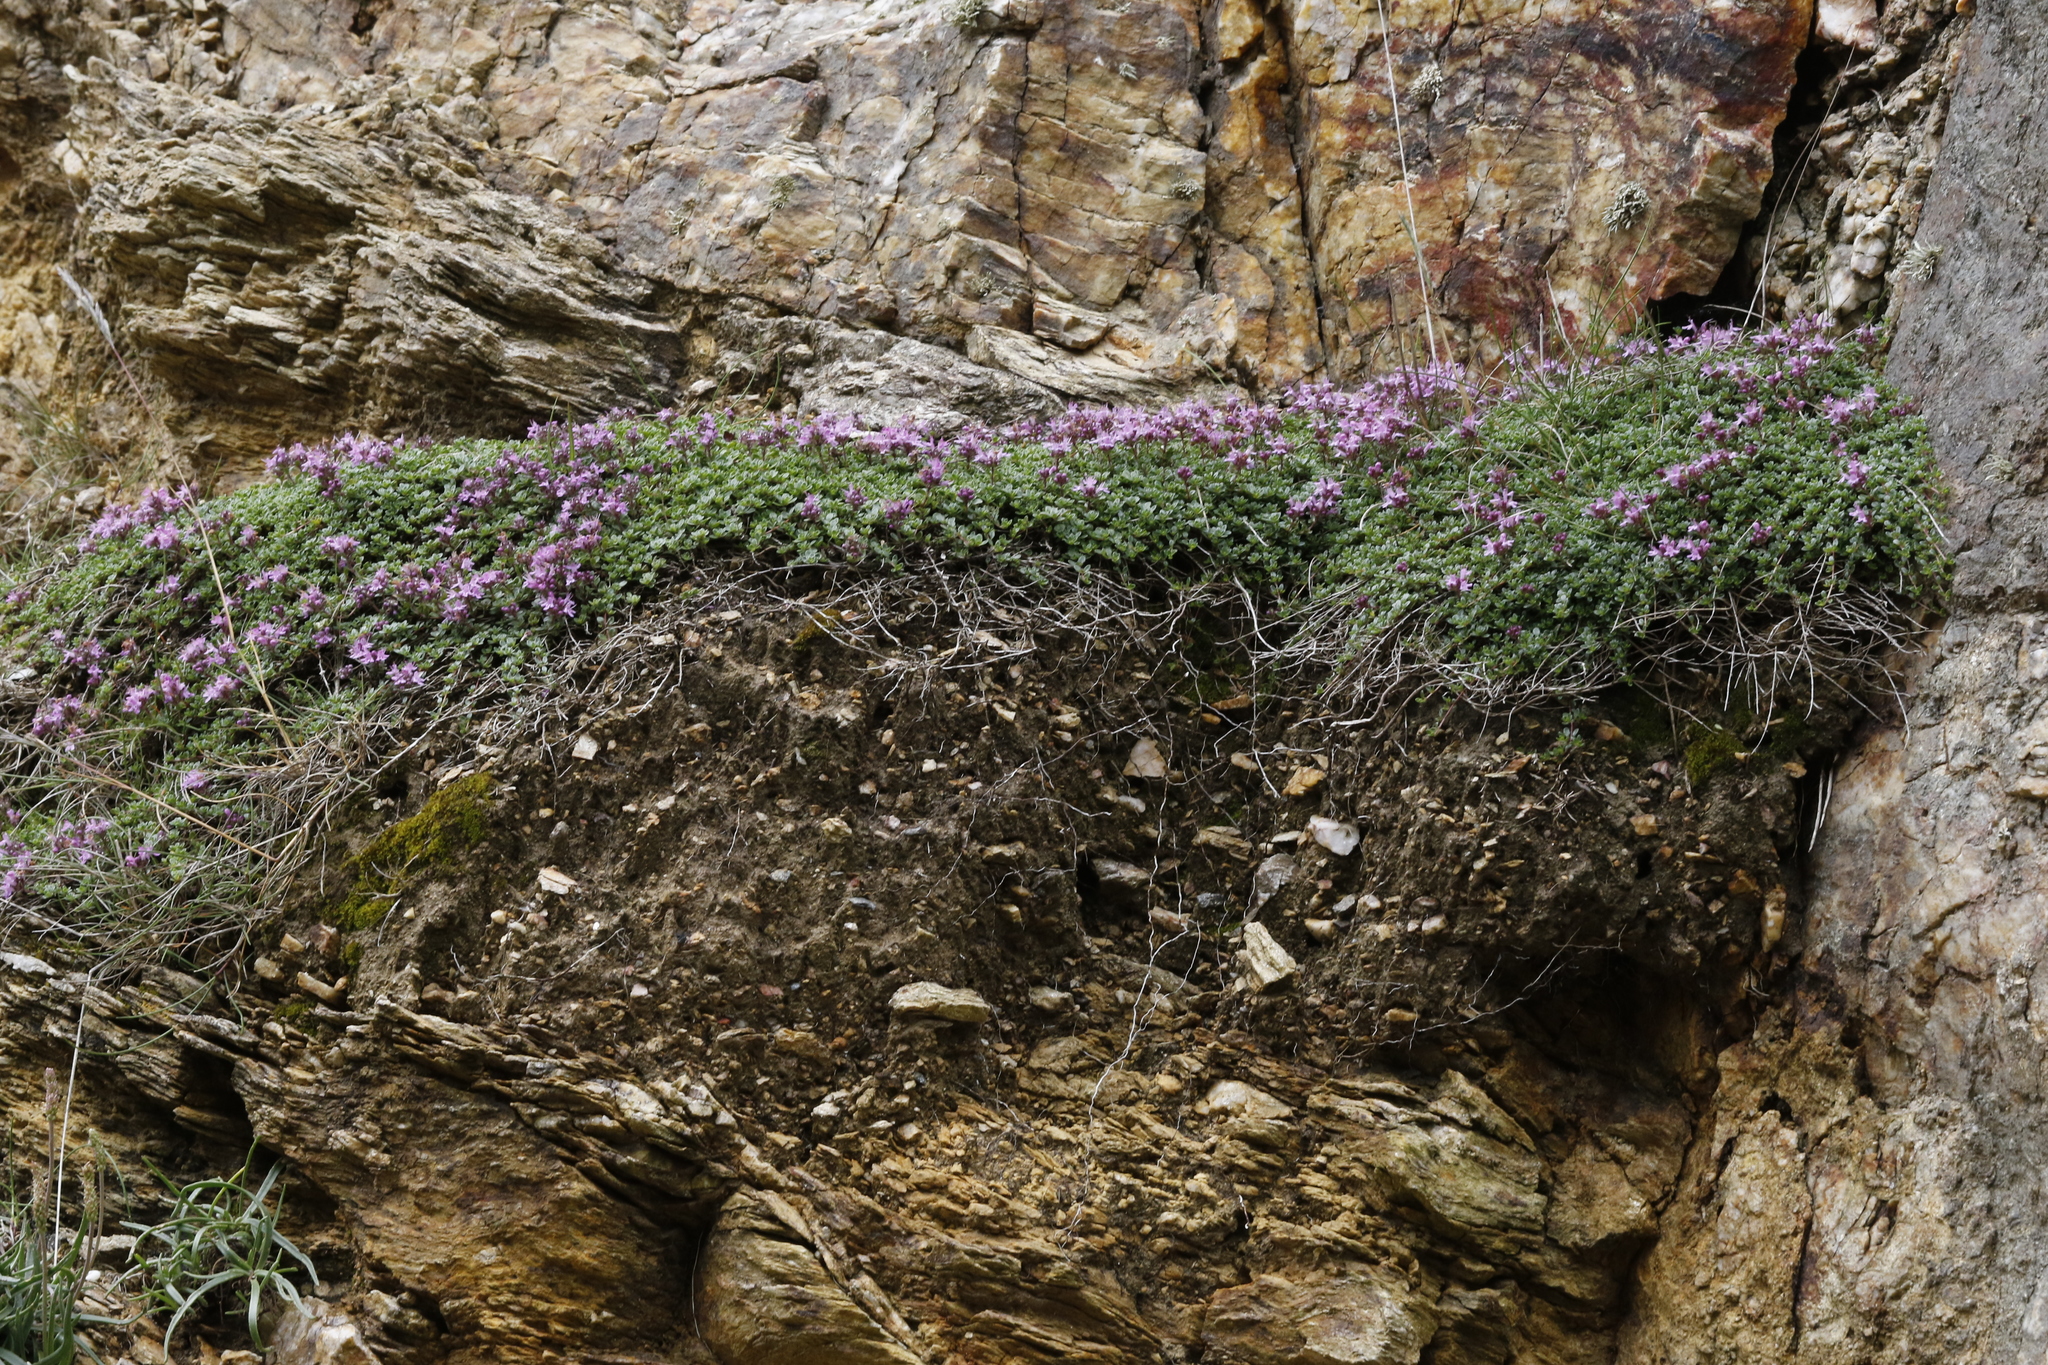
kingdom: Plantae
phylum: Tracheophyta
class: Magnoliopsida
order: Lamiales
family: Lamiaceae
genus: Thymus
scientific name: Thymus praecox
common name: Wild thyme
